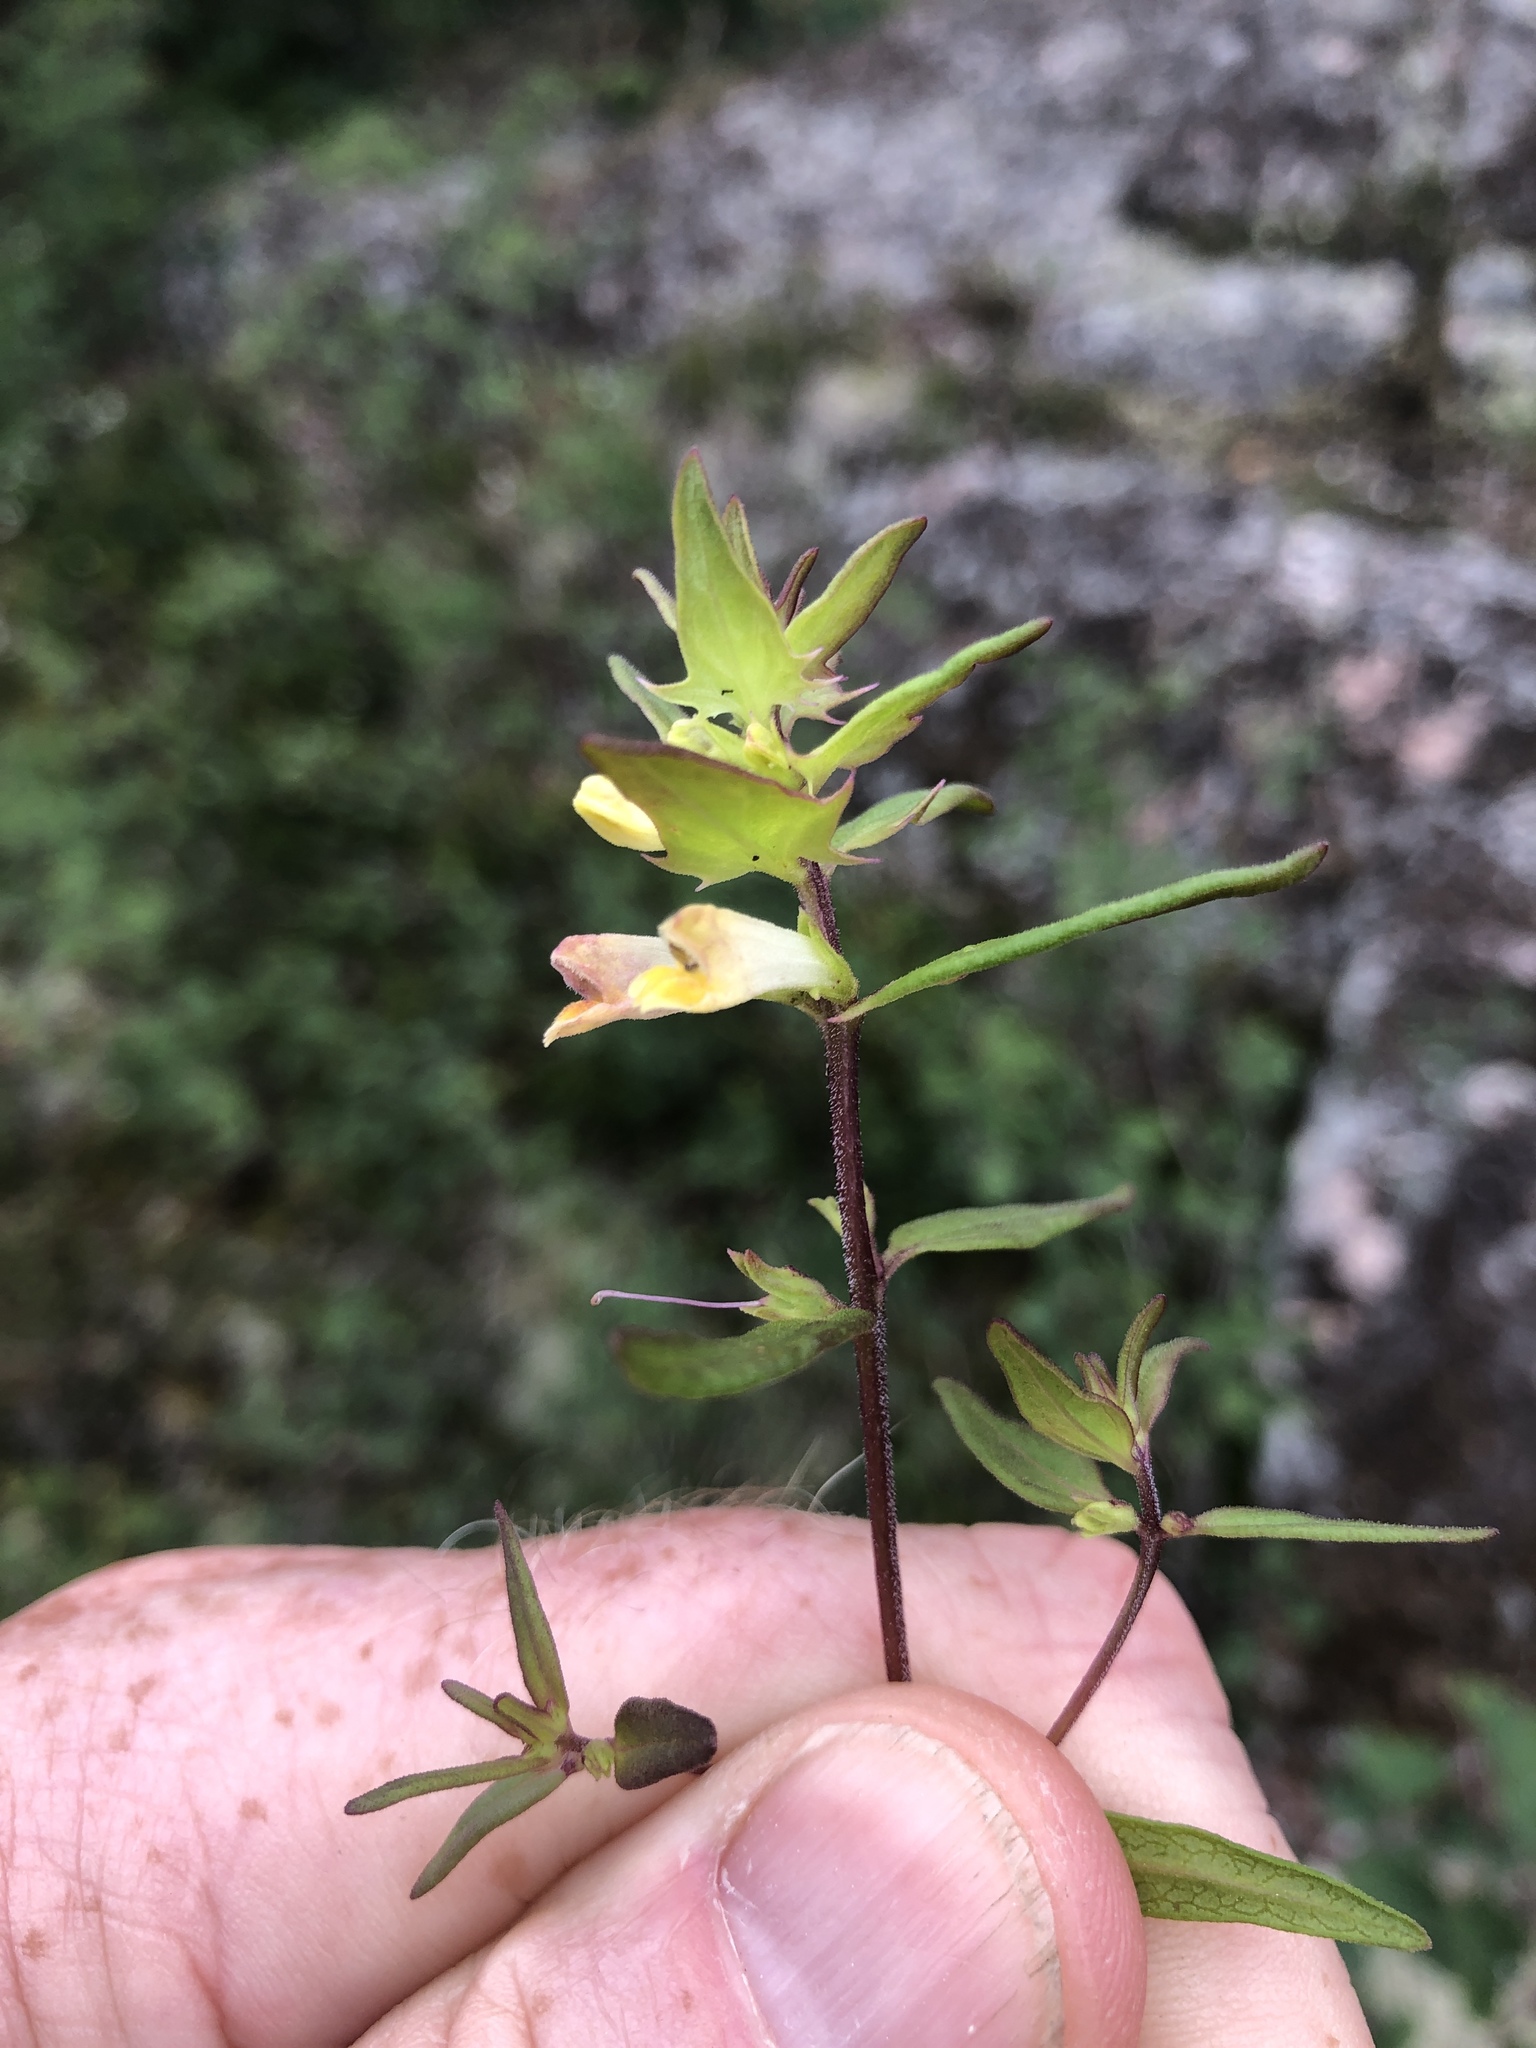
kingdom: Plantae
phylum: Tracheophyta
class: Magnoliopsida
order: Lamiales
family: Orobanchaceae
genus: Melampyrum
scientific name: Melampyrum lineare
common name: American cow-wheat
